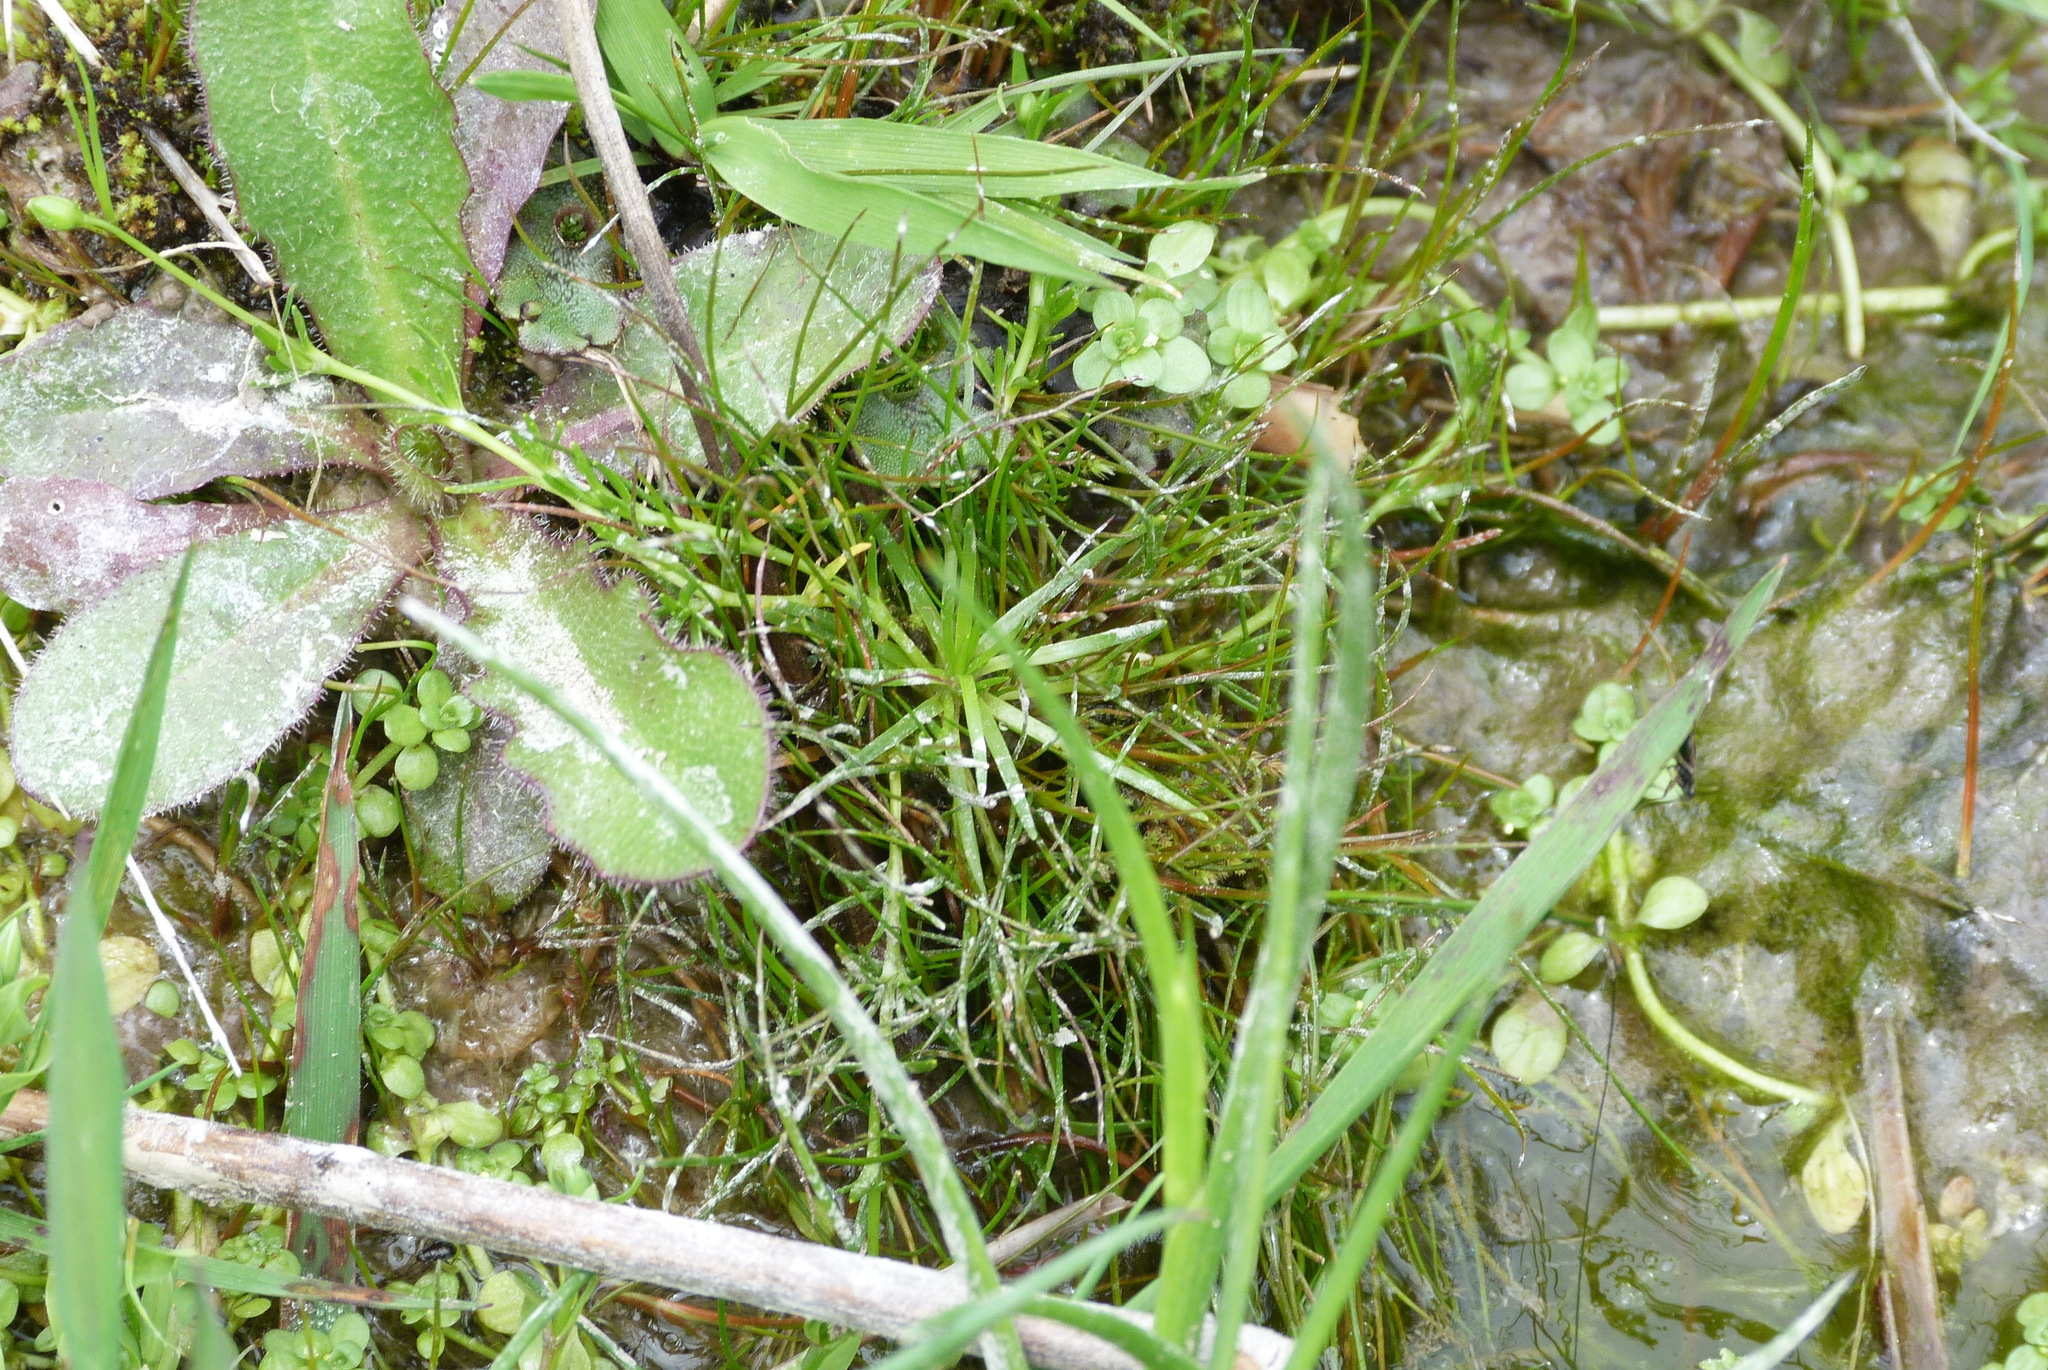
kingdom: Plantae
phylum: Tracheophyta
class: Magnoliopsida
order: Caryophyllales
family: Caryophyllaceae
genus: Sagina
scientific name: Sagina procumbens
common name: Procumbent pearlwort
